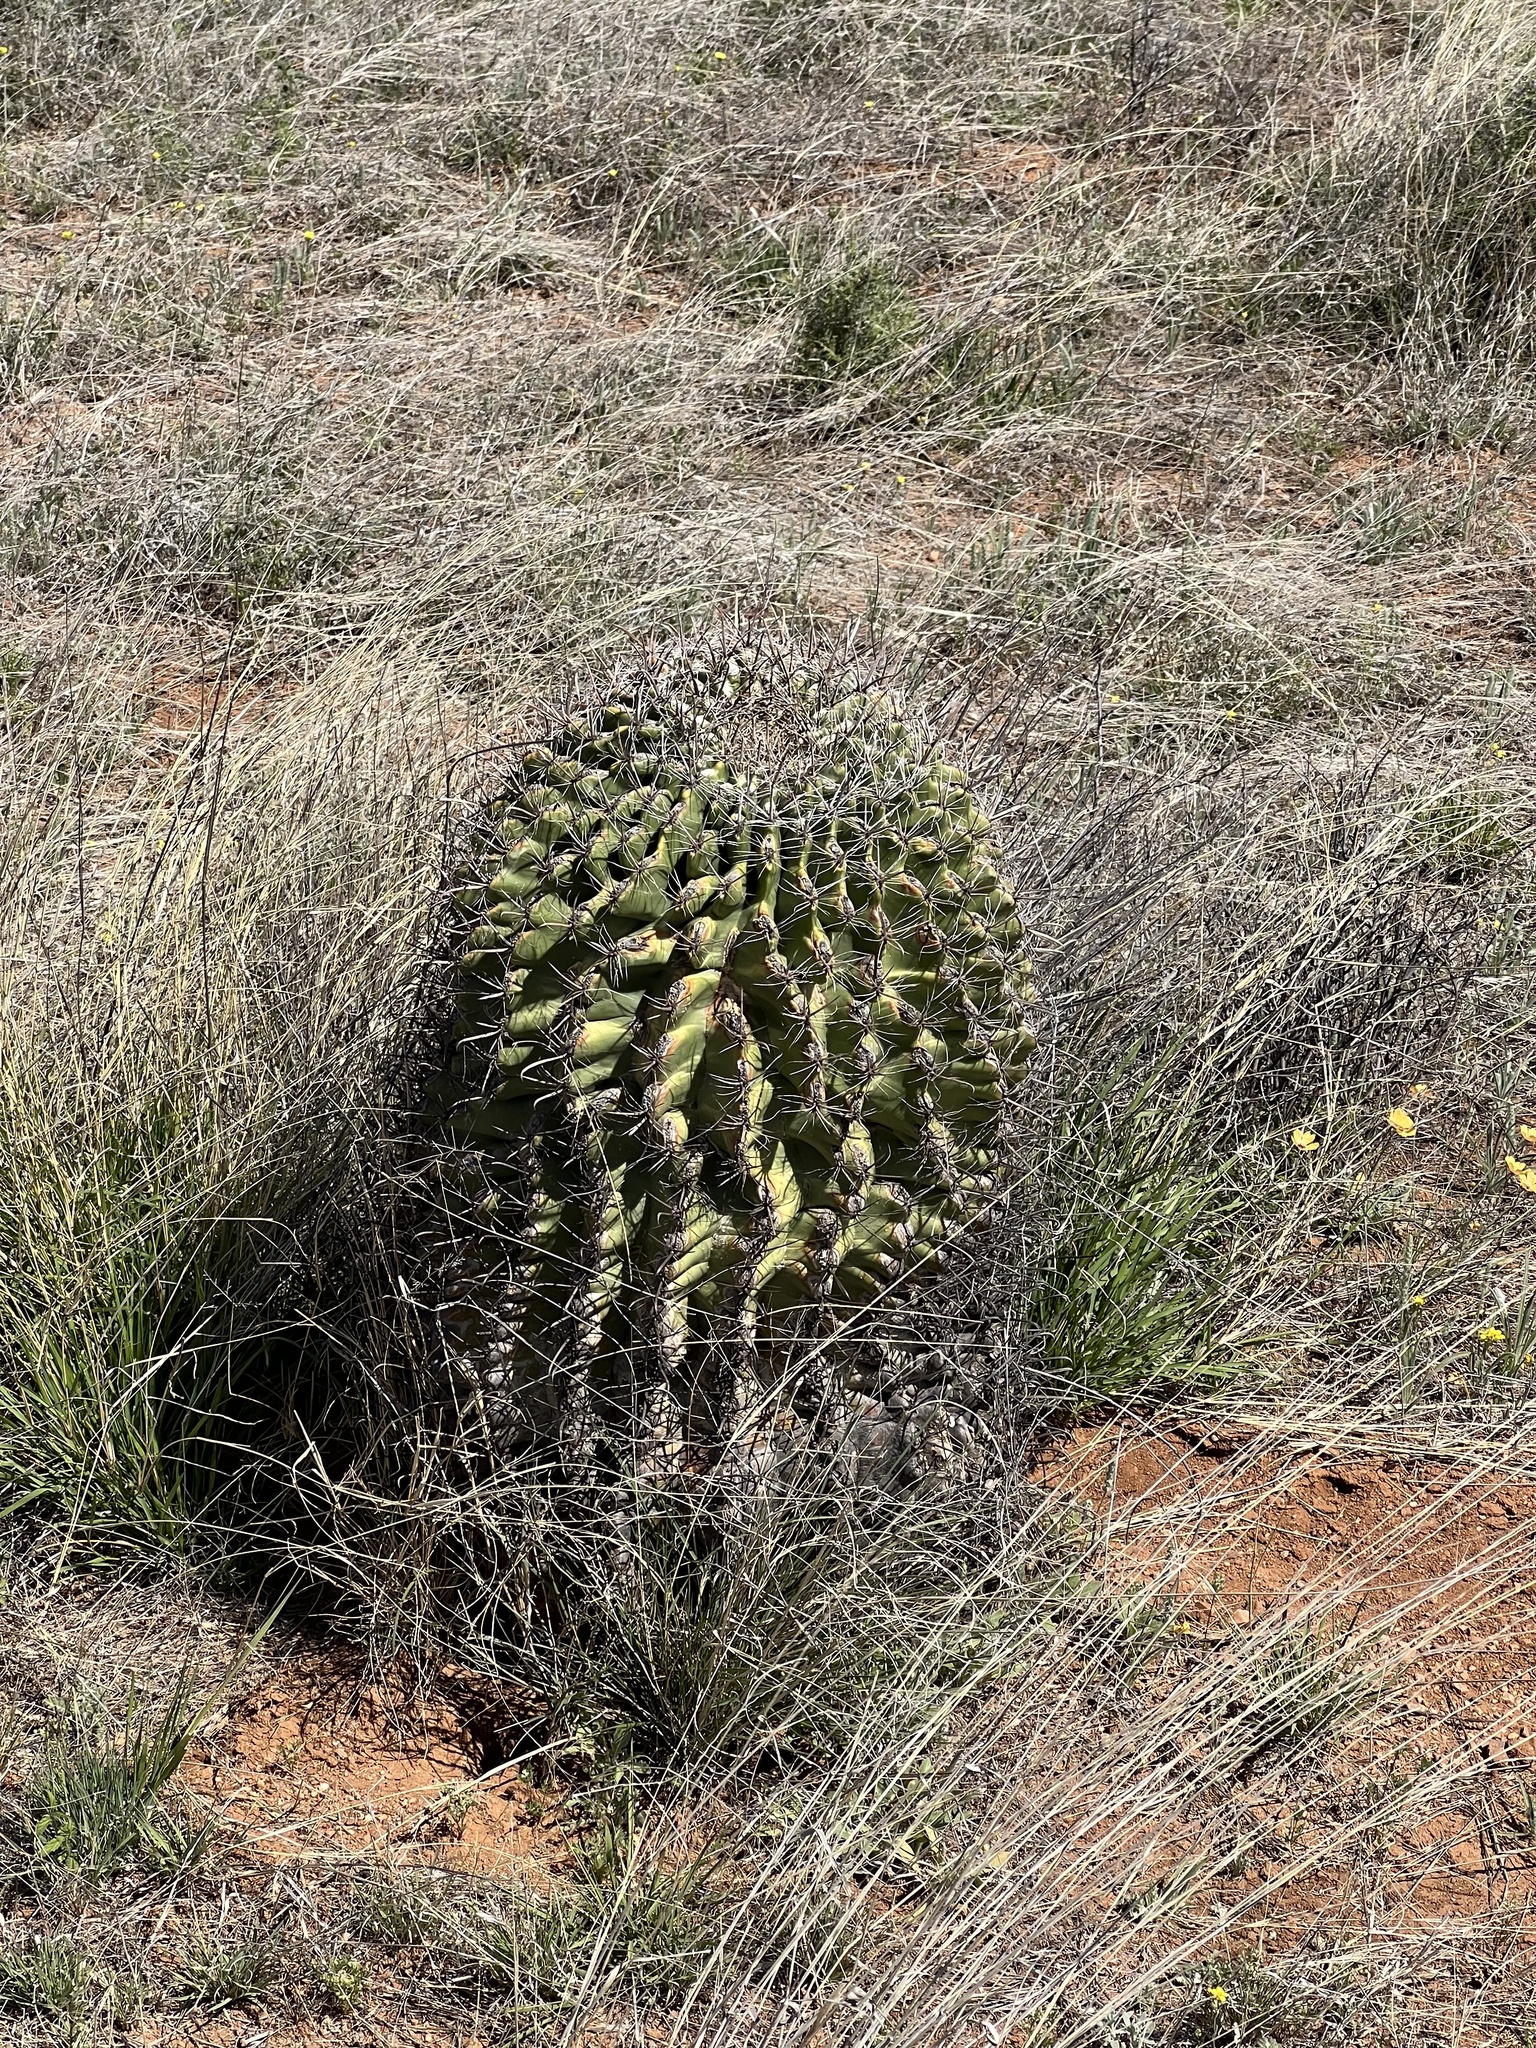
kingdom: Plantae
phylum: Tracheophyta
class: Magnoliopsida
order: Caryophyllales
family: Cactaceae
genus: Ferocactus
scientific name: Ferocactus wislizeni
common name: Candy barrel cactus
